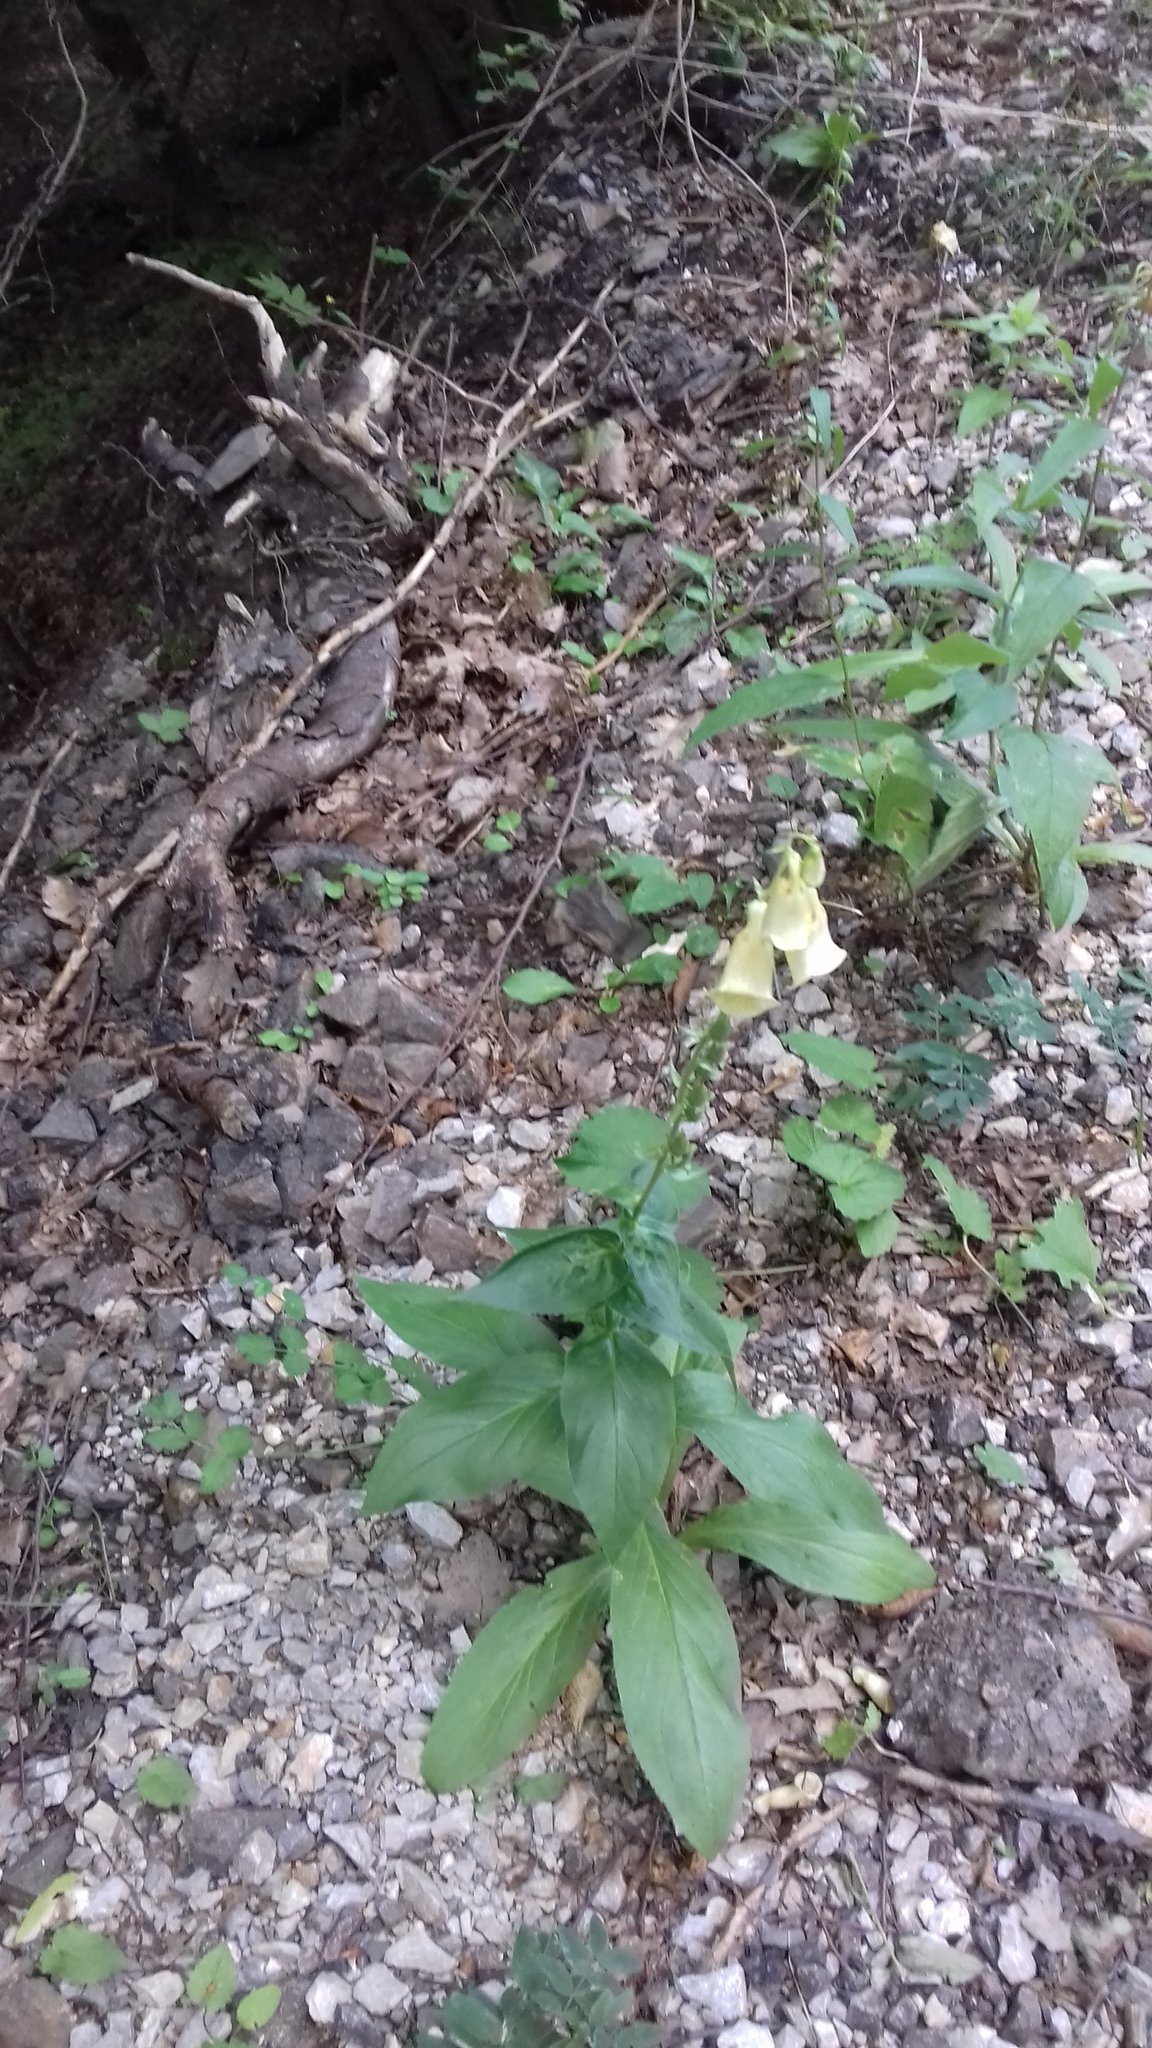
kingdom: Plantae
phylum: Tracheophyta
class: Magnoliopsida
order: Lamiales
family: Plantaginaceae
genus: Digitalis
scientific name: Digitalis grandiflora
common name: Yellow foxglove
